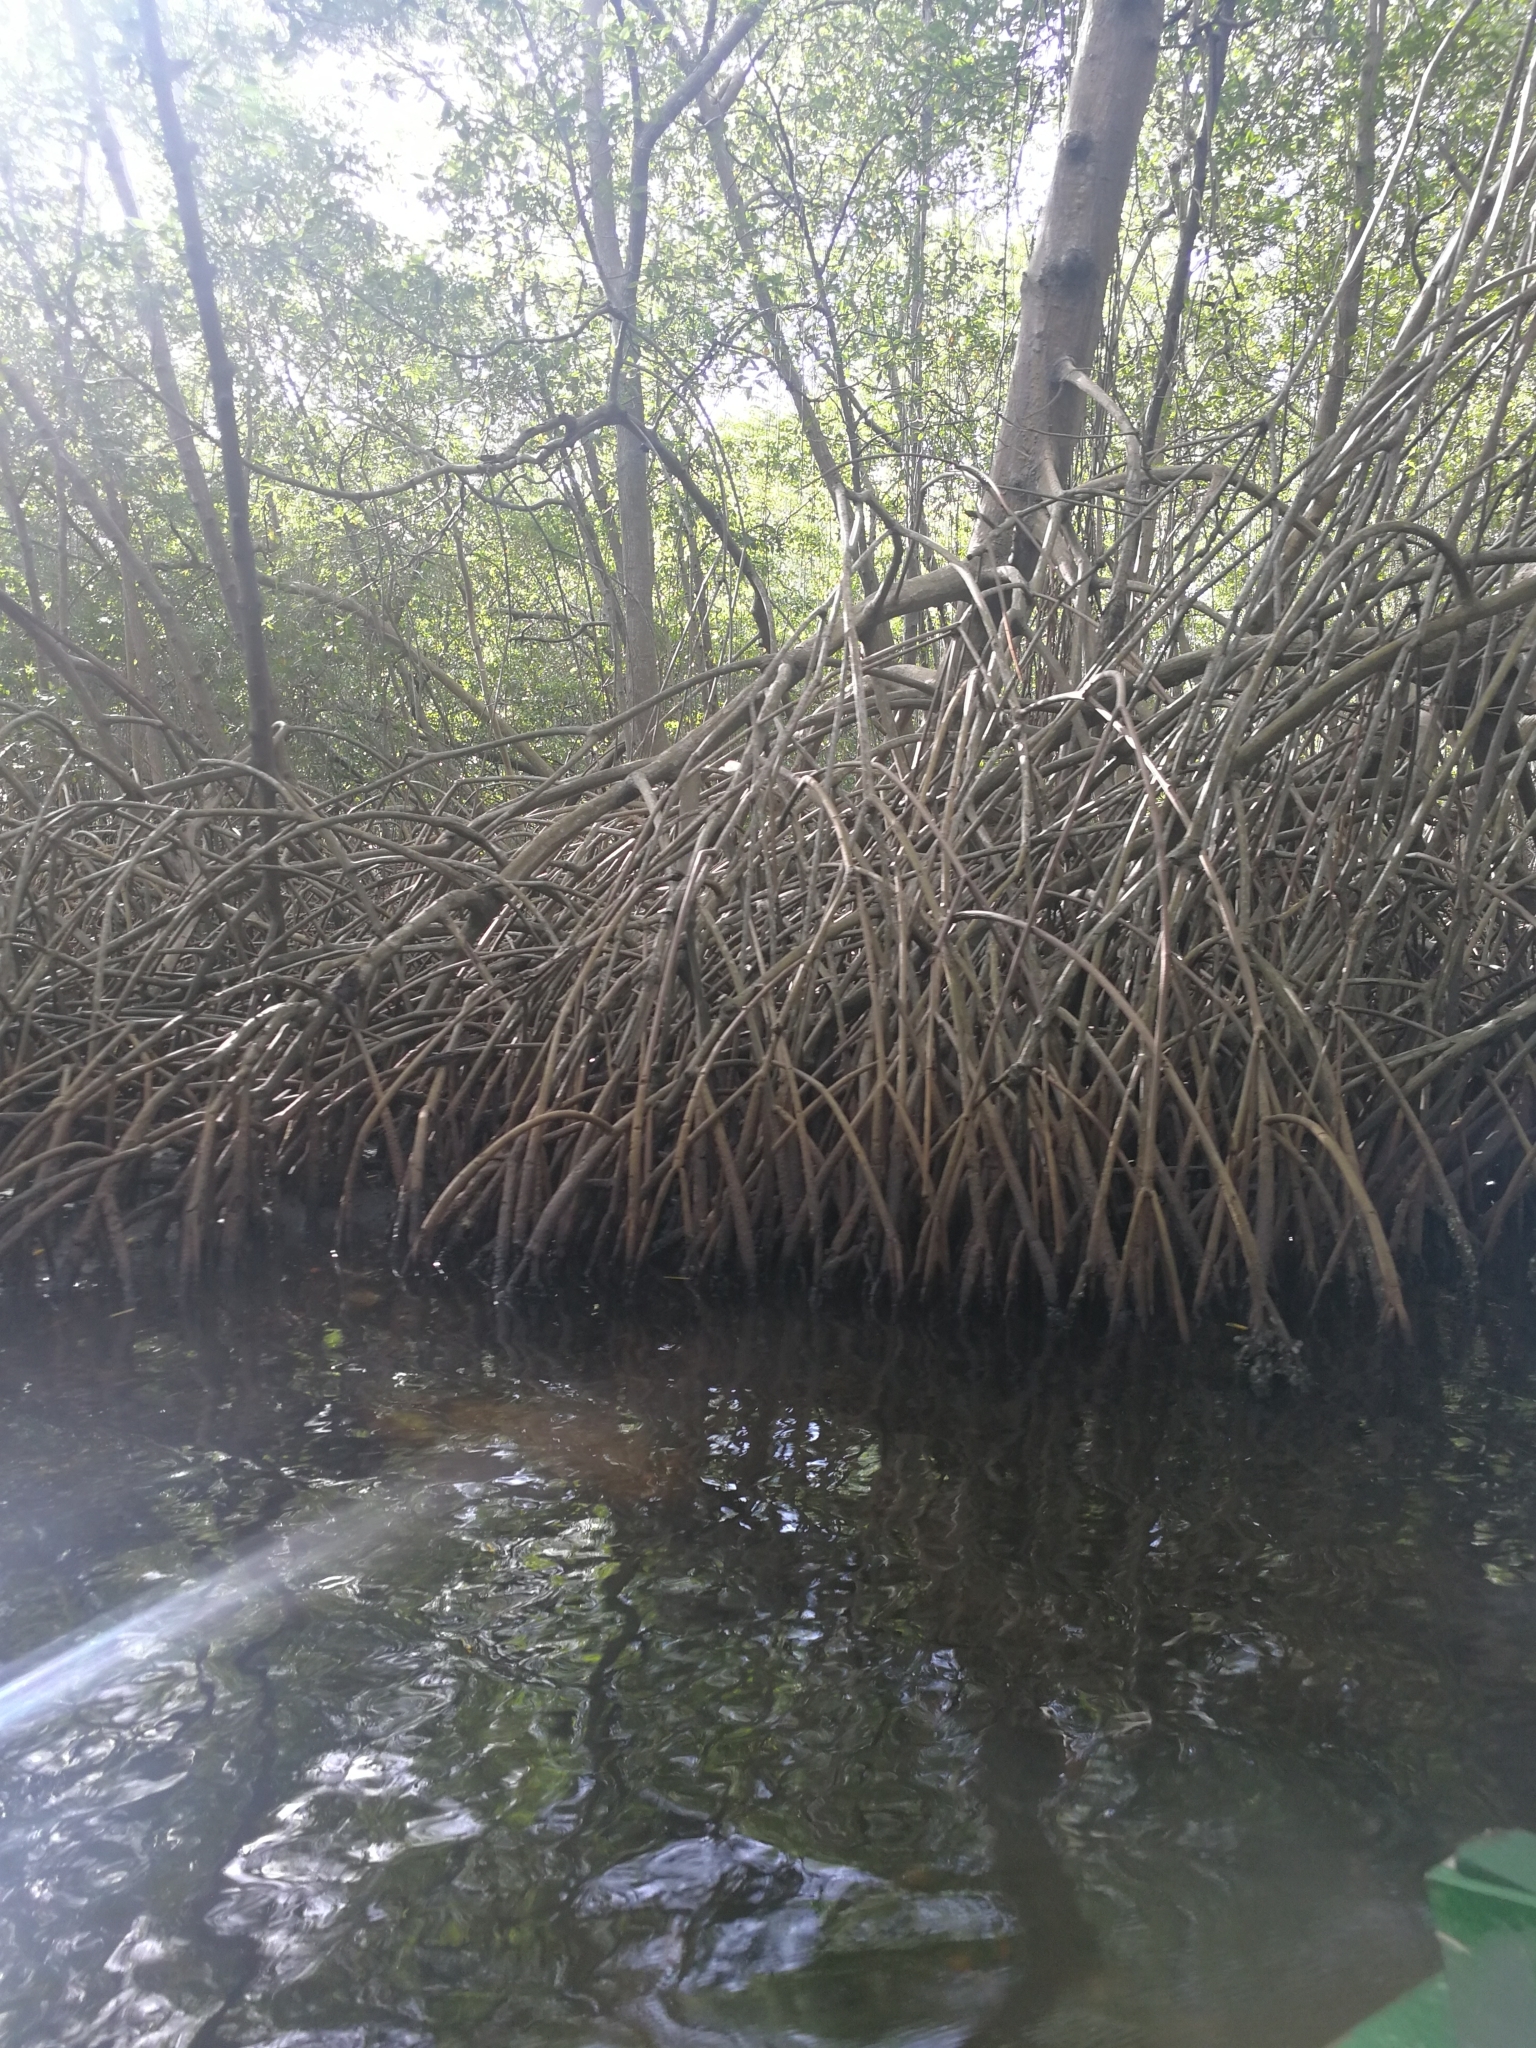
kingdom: Plantae
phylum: Tracheophyta
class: Magnoliopsida
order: Malpighiales
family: Rhizophoraceae
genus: Rhizophora
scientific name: Rhizophora mangle
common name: Red mangrove
